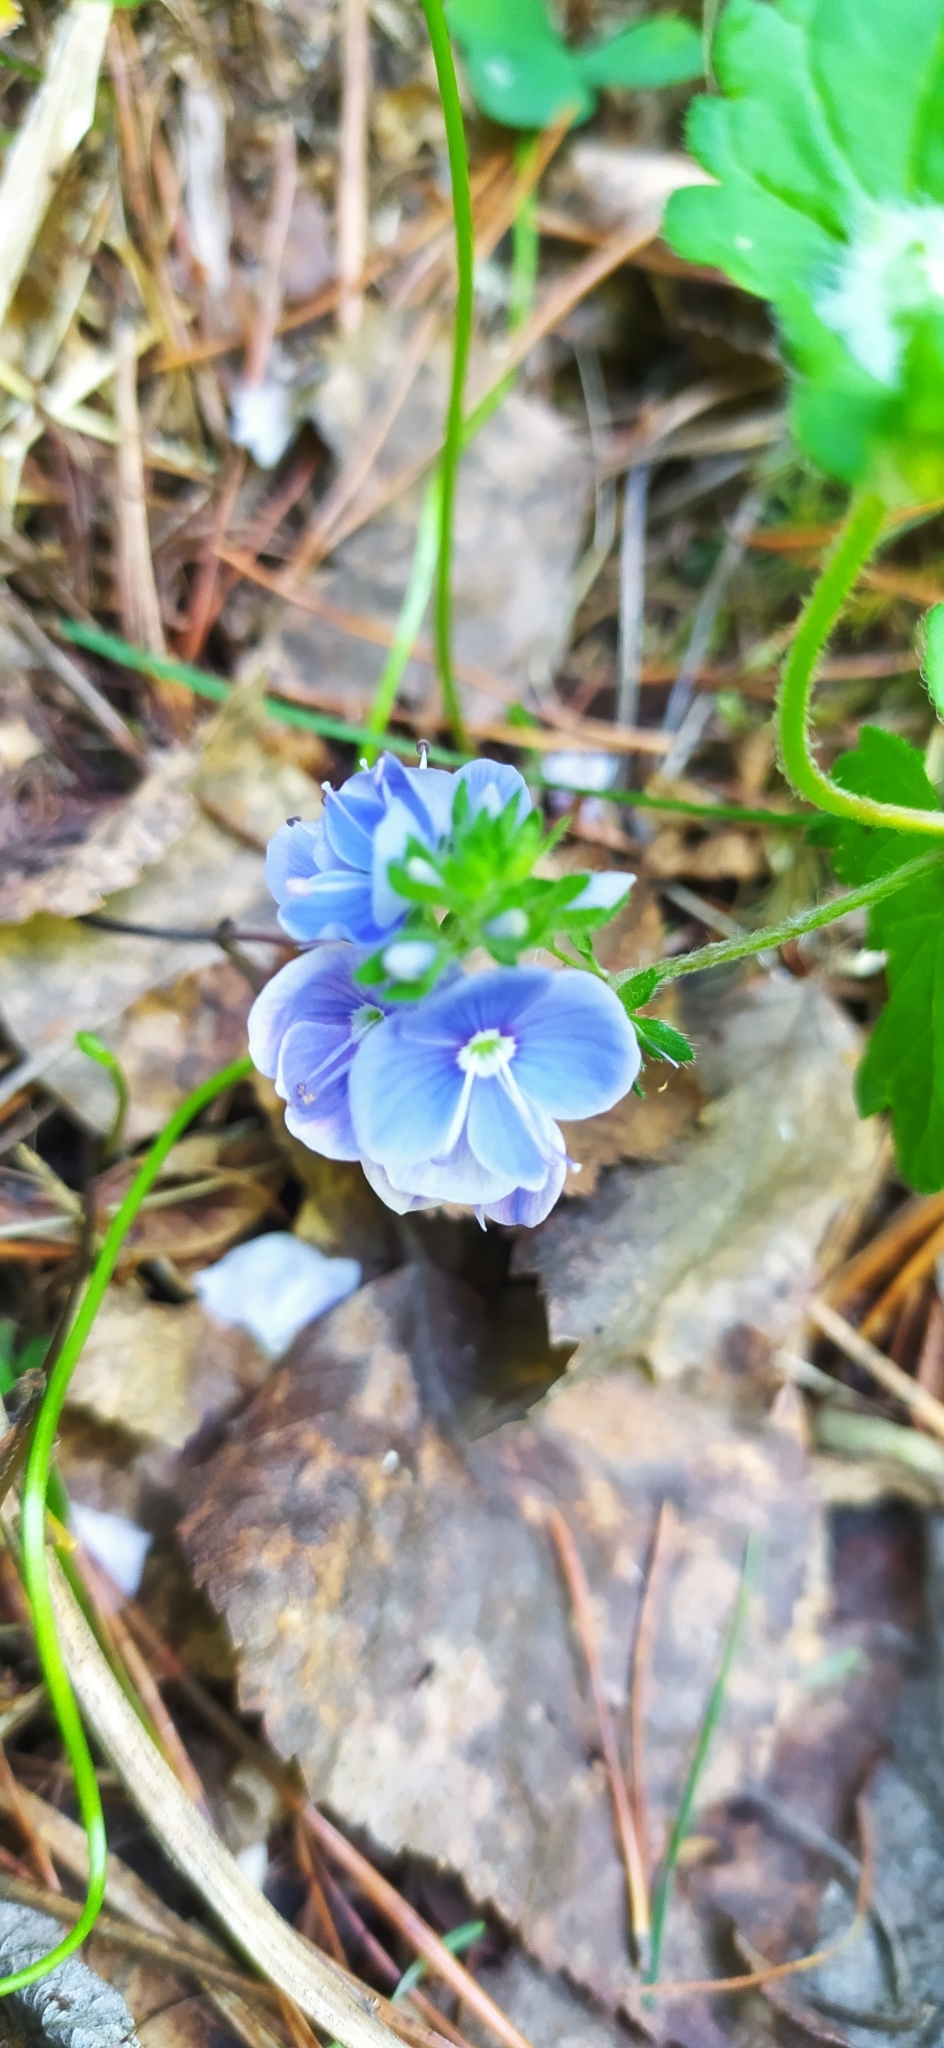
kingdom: Plantae
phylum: Tracheophyta
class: Magnoliopsida
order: Lamiales
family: Plantaginaceae
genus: Veronica
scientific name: Veronica chamaedrys
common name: Germander speedwell
